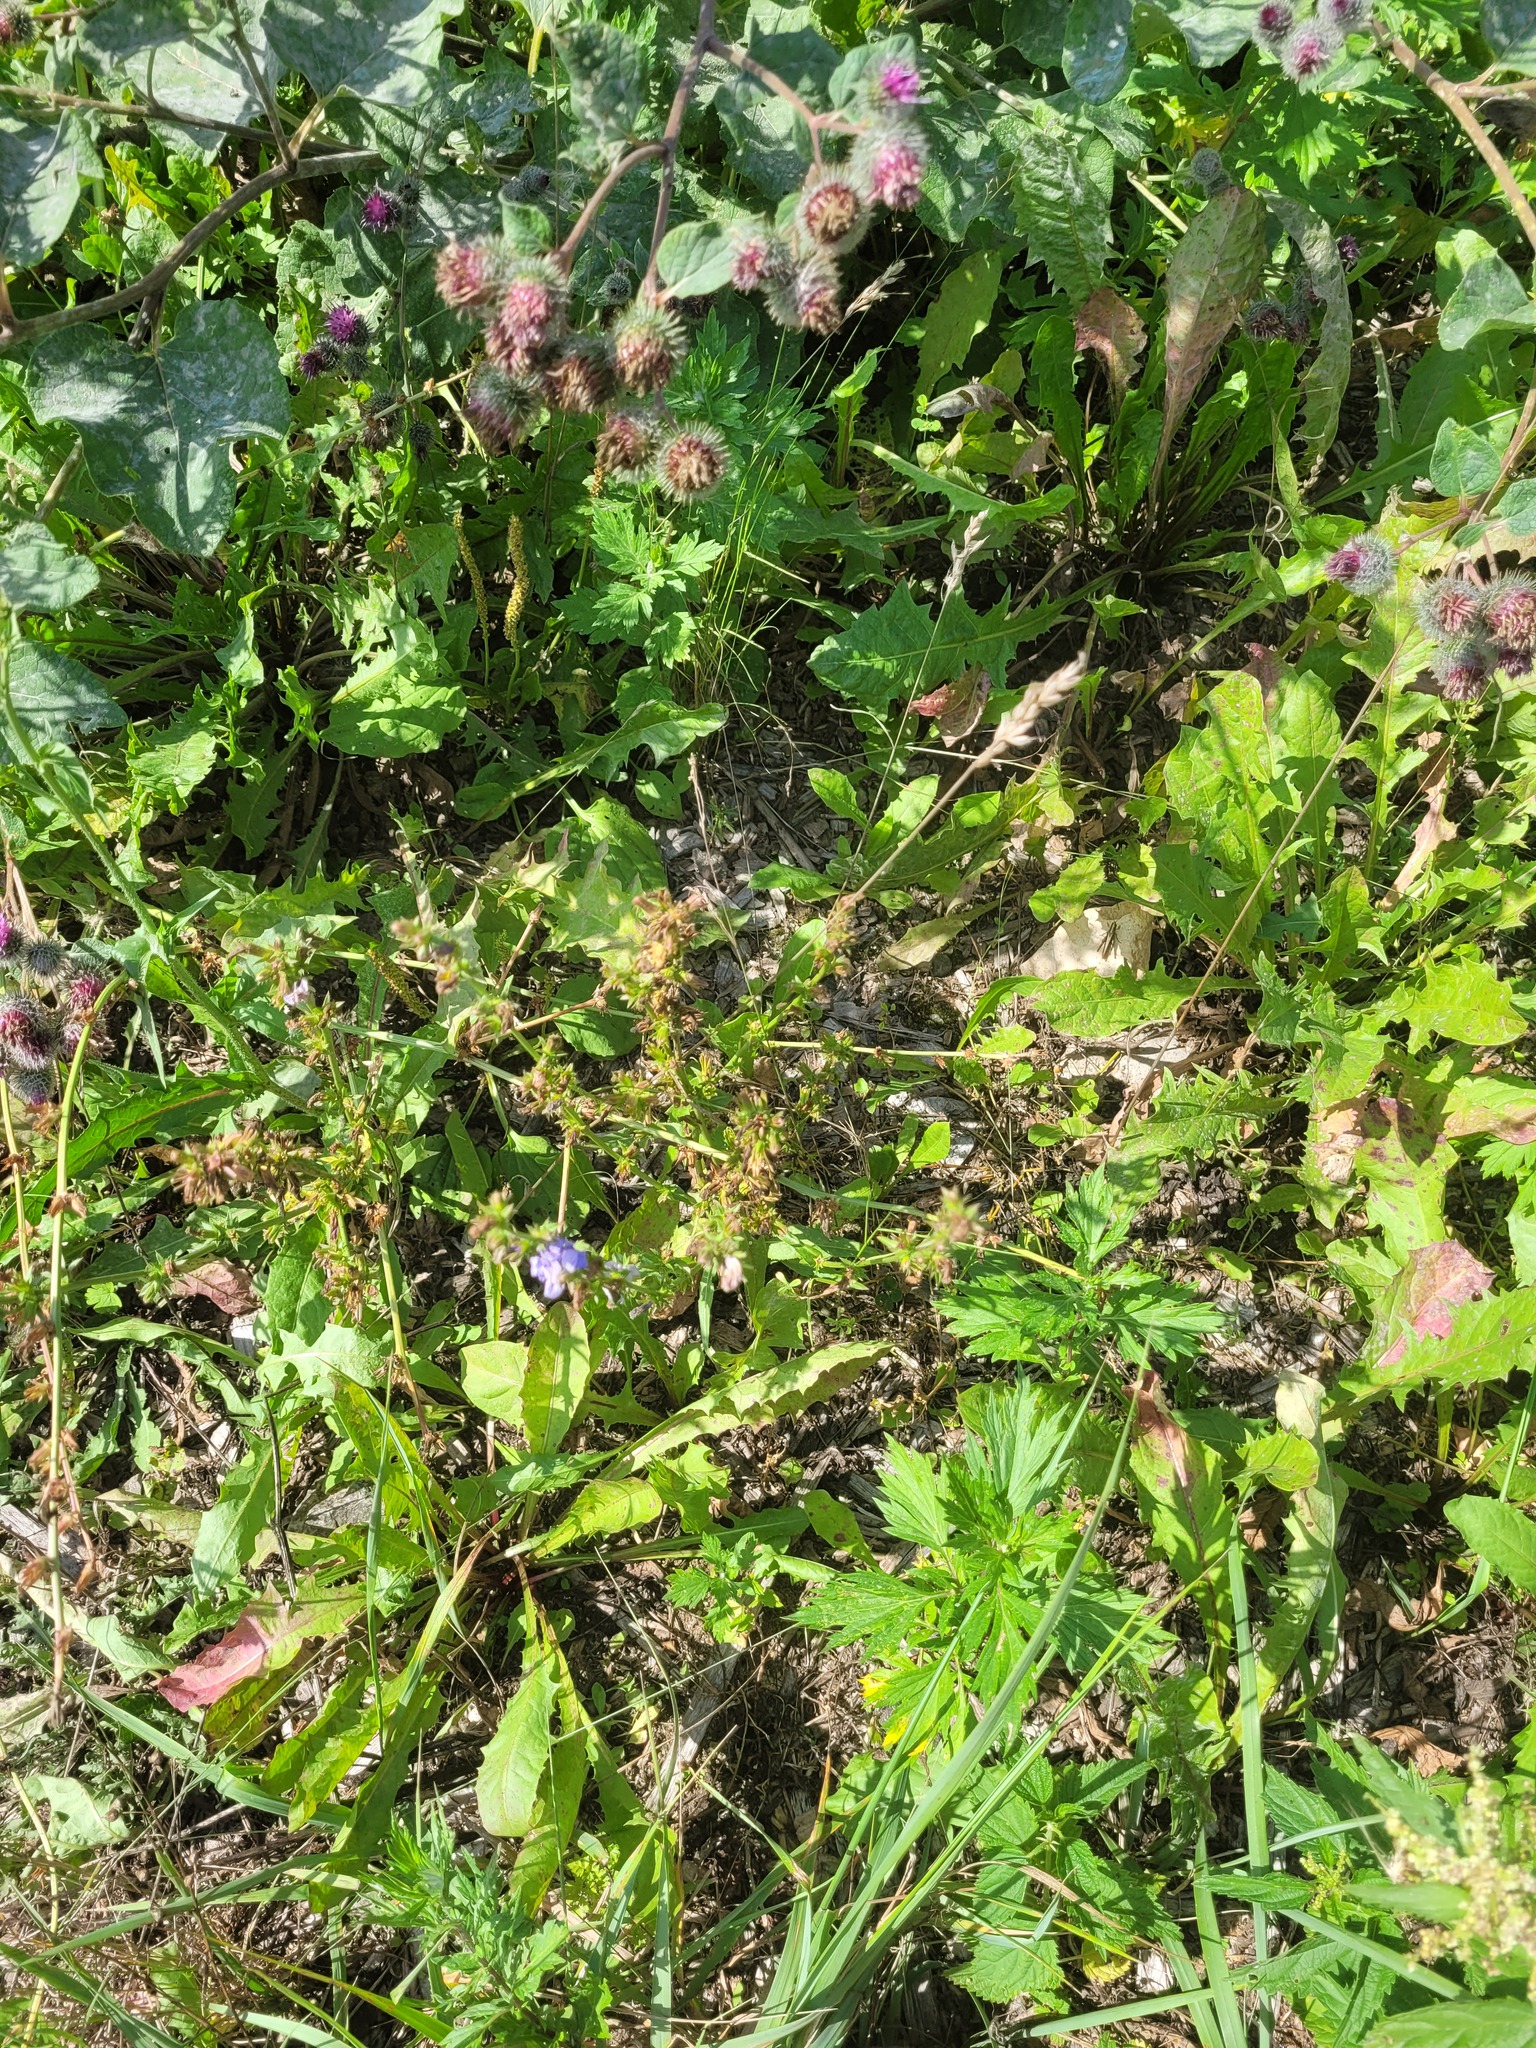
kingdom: Plantae
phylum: Tracheophyta
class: Magnoliopsida
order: Asterales
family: Asteraceae
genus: Cichorium
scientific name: Cichorium intybus
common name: Chicory
